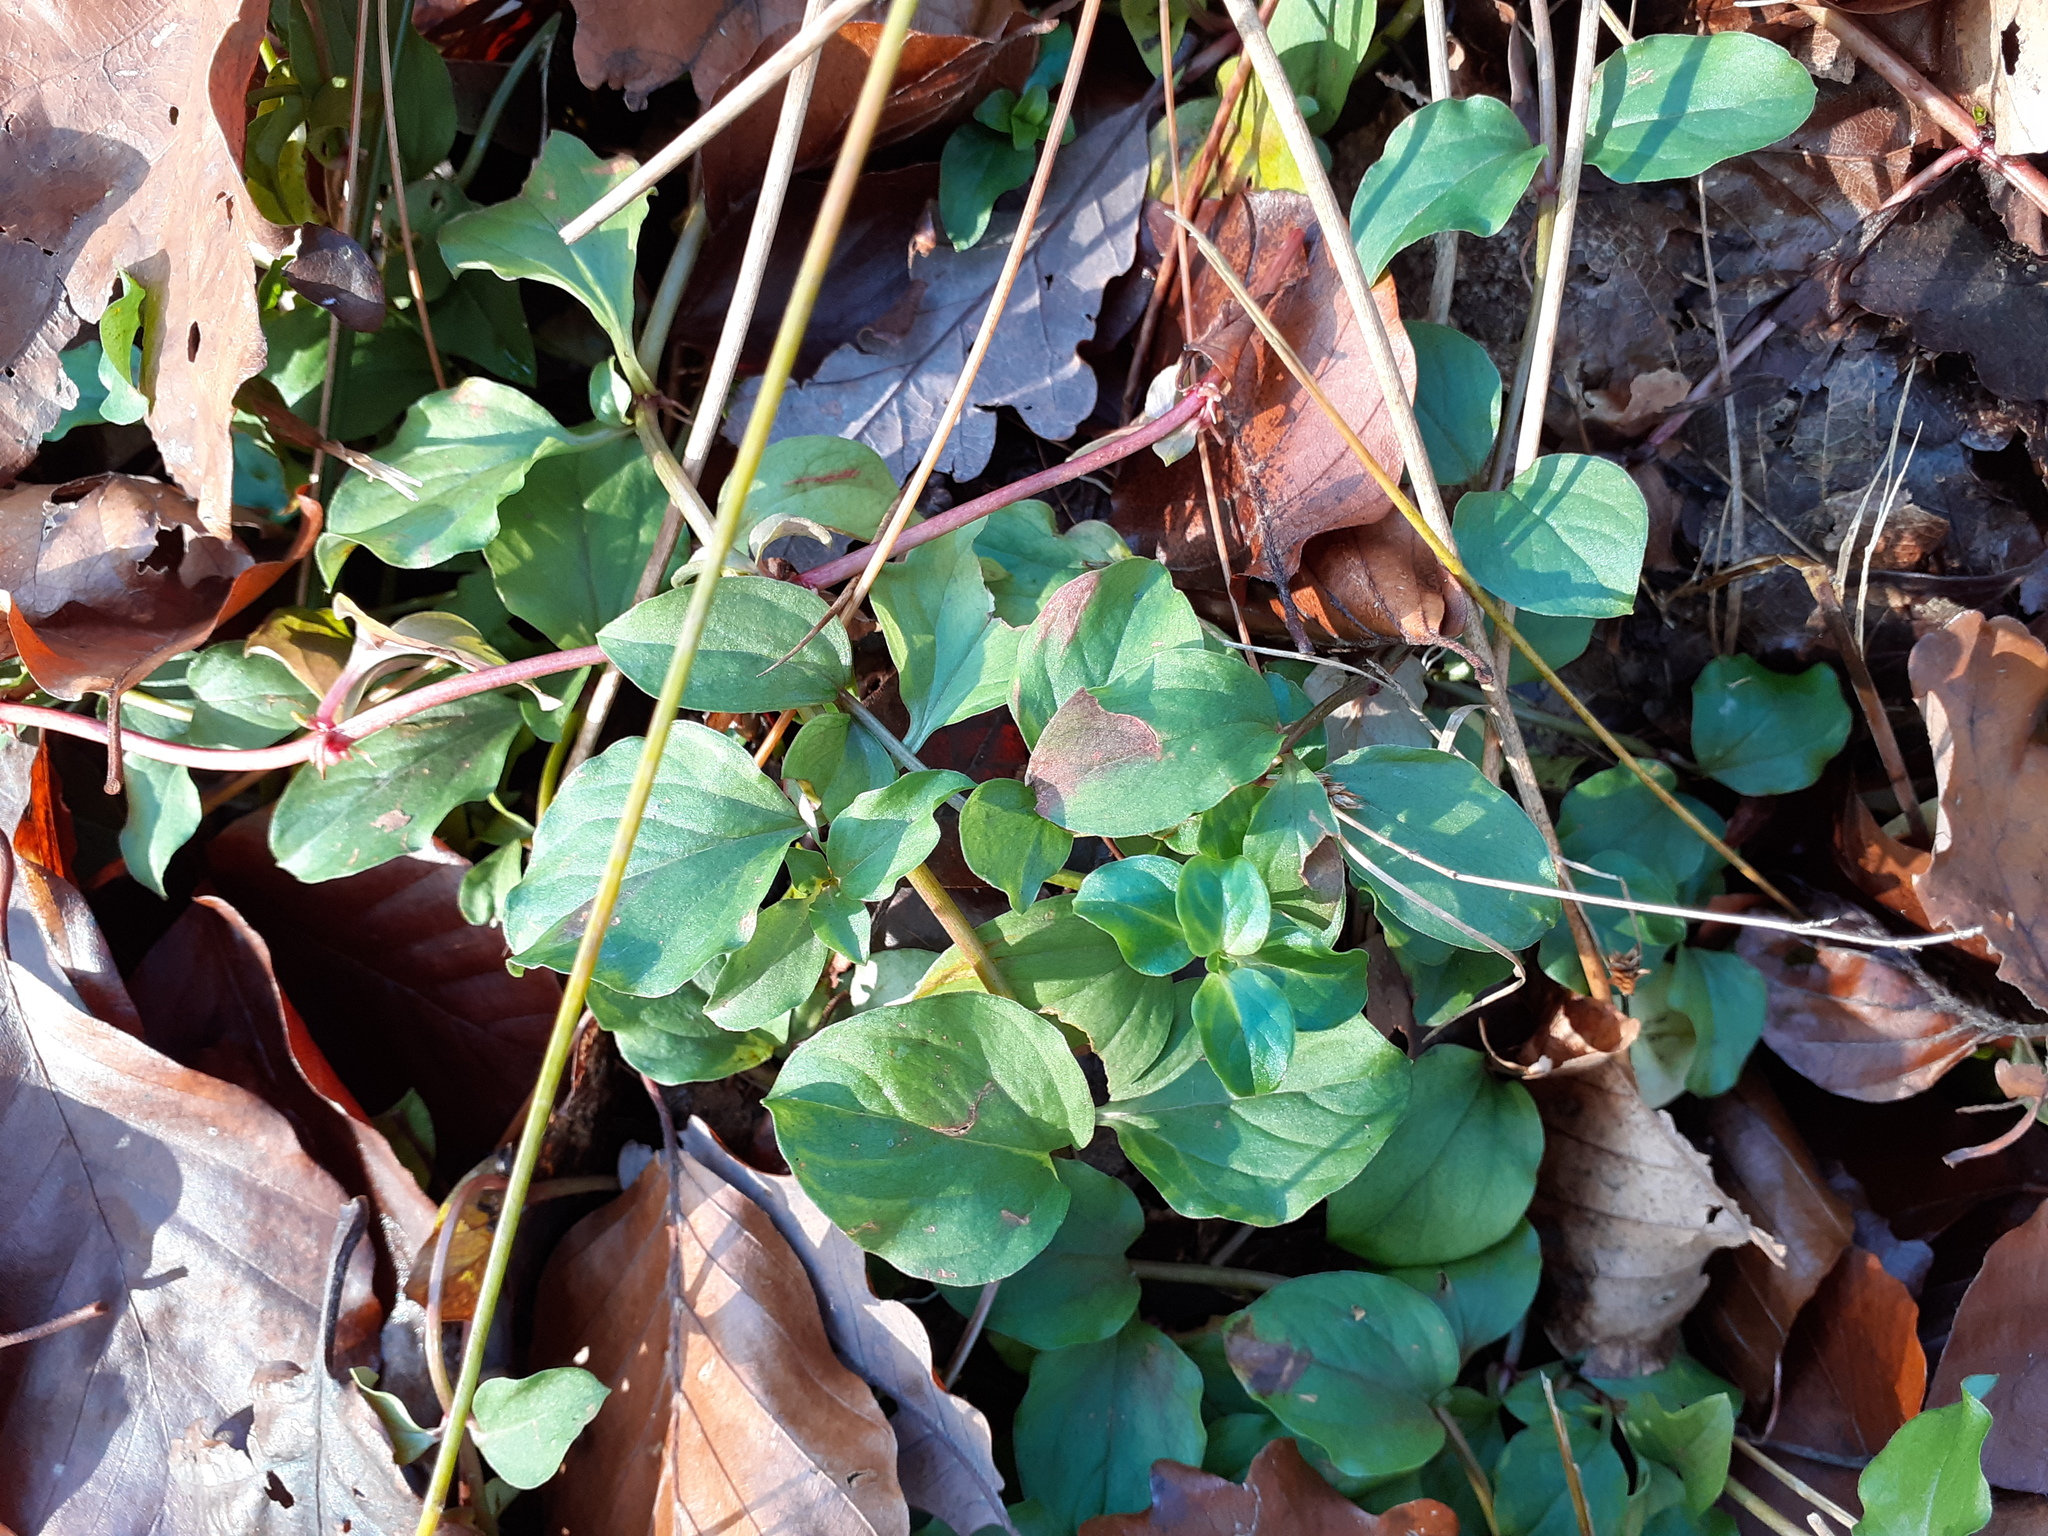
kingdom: Plantae
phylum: Tracheophyta
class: Magnoliopsida
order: Ericales
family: Primulaceae
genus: Lysimachia
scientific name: Lysimachia nemorum
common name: Yellow pimpernel
